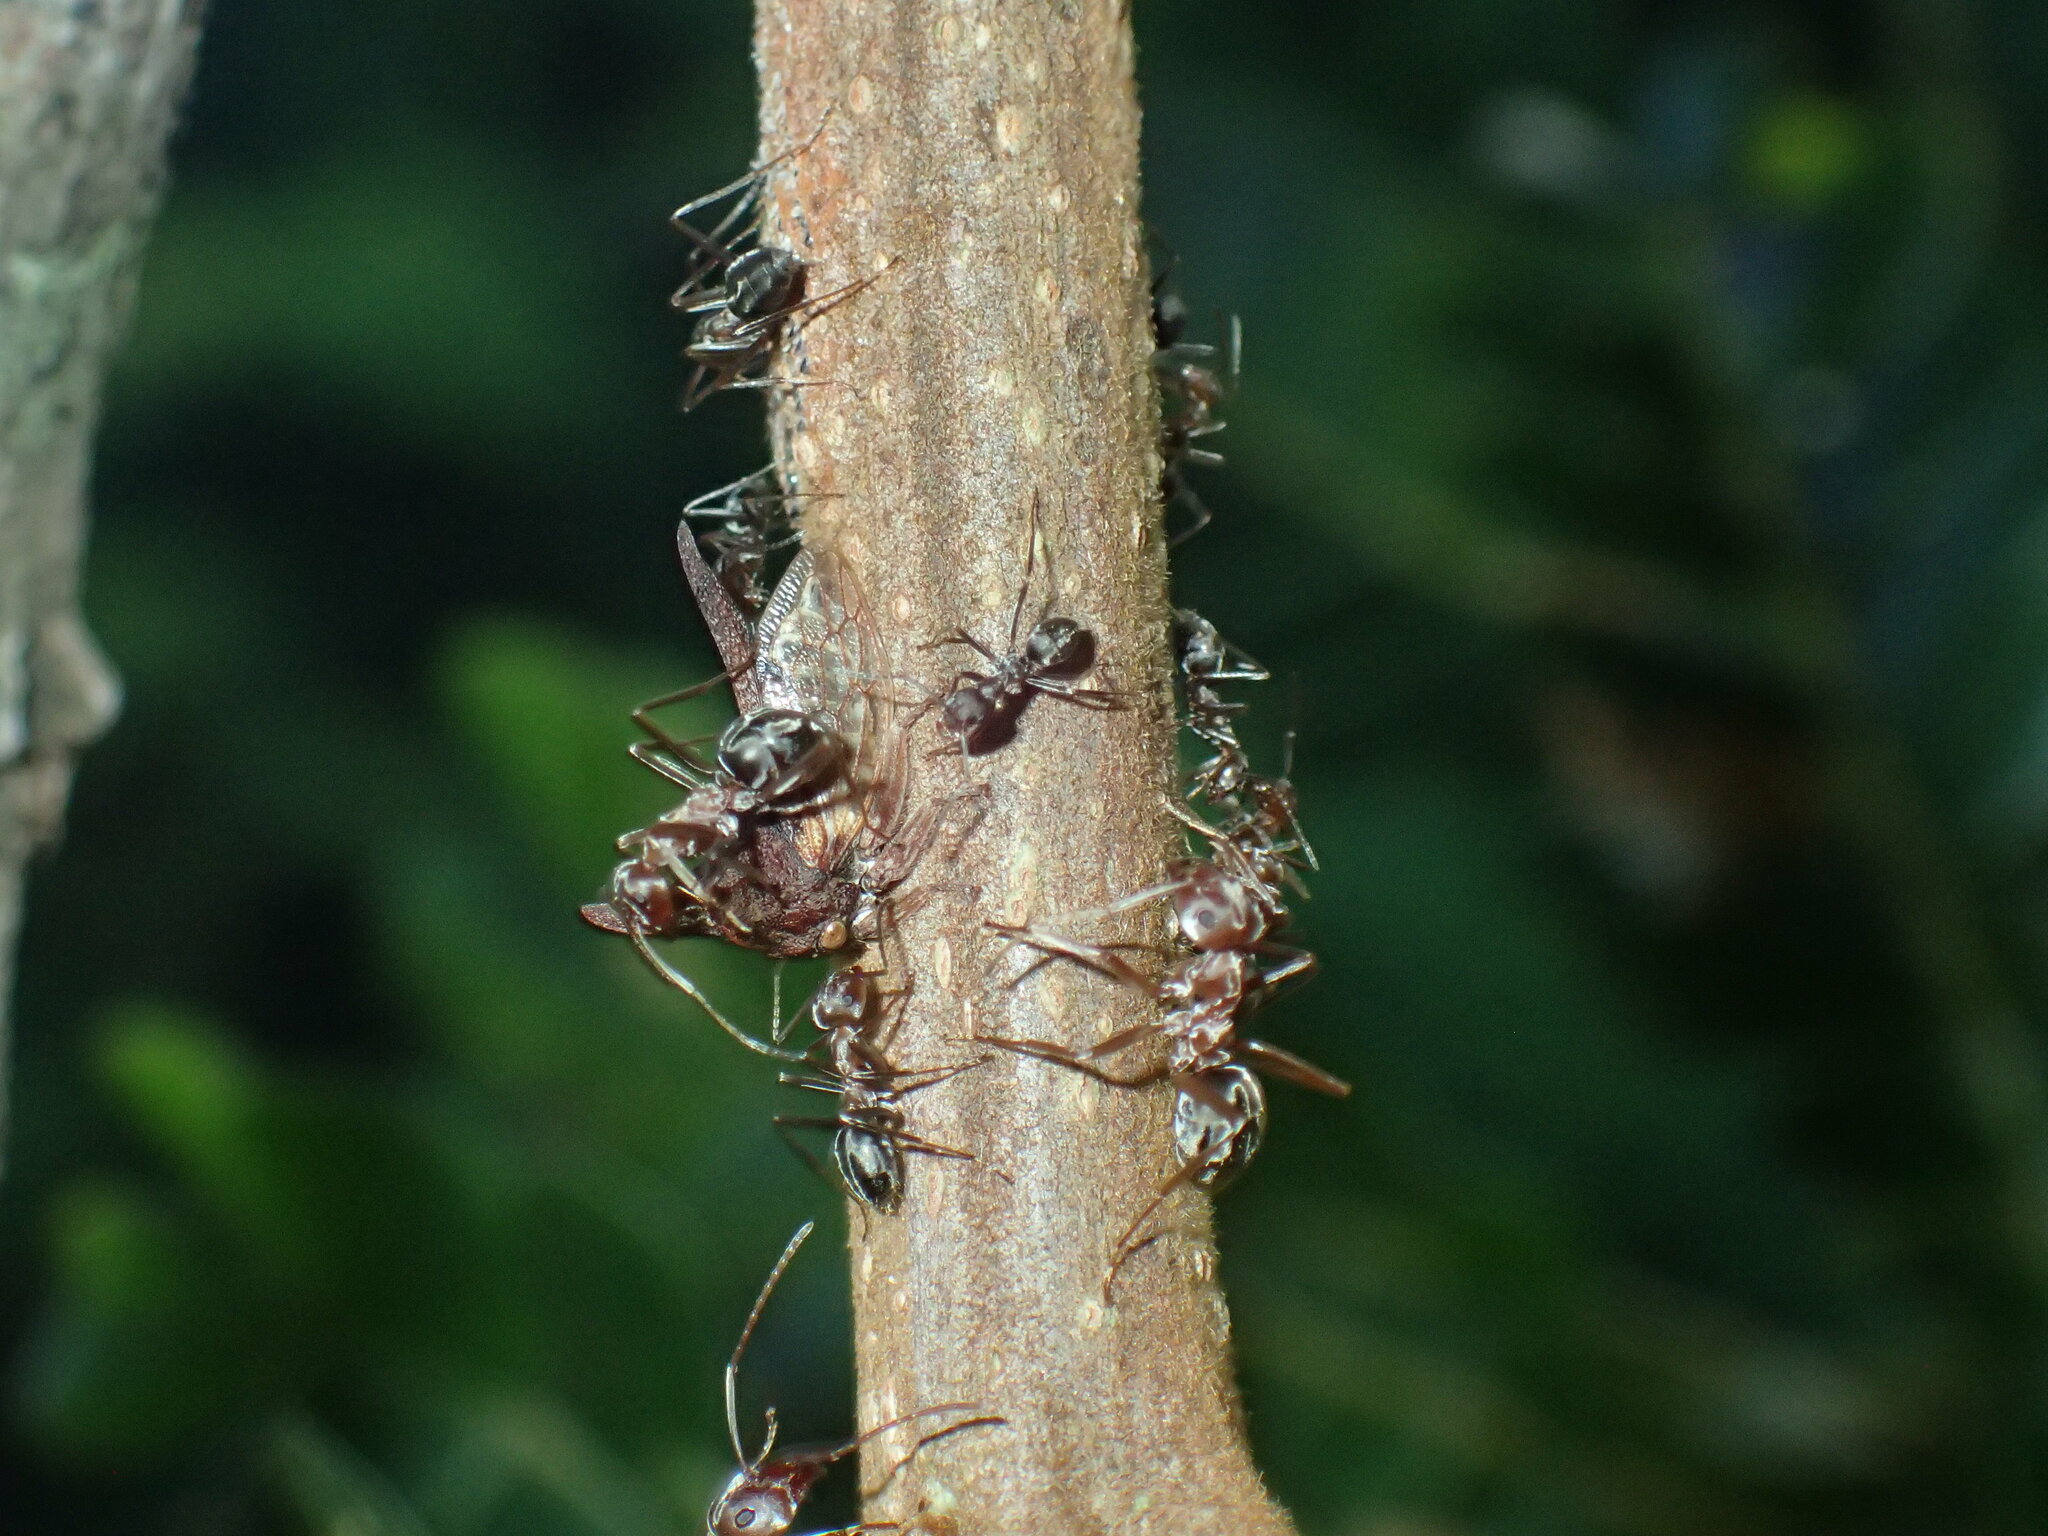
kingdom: Animalia
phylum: Arthropoda
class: Insecta
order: Hymenoptera
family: Formicidae
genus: Anoplolepis
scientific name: Anoplolepis custodiens
